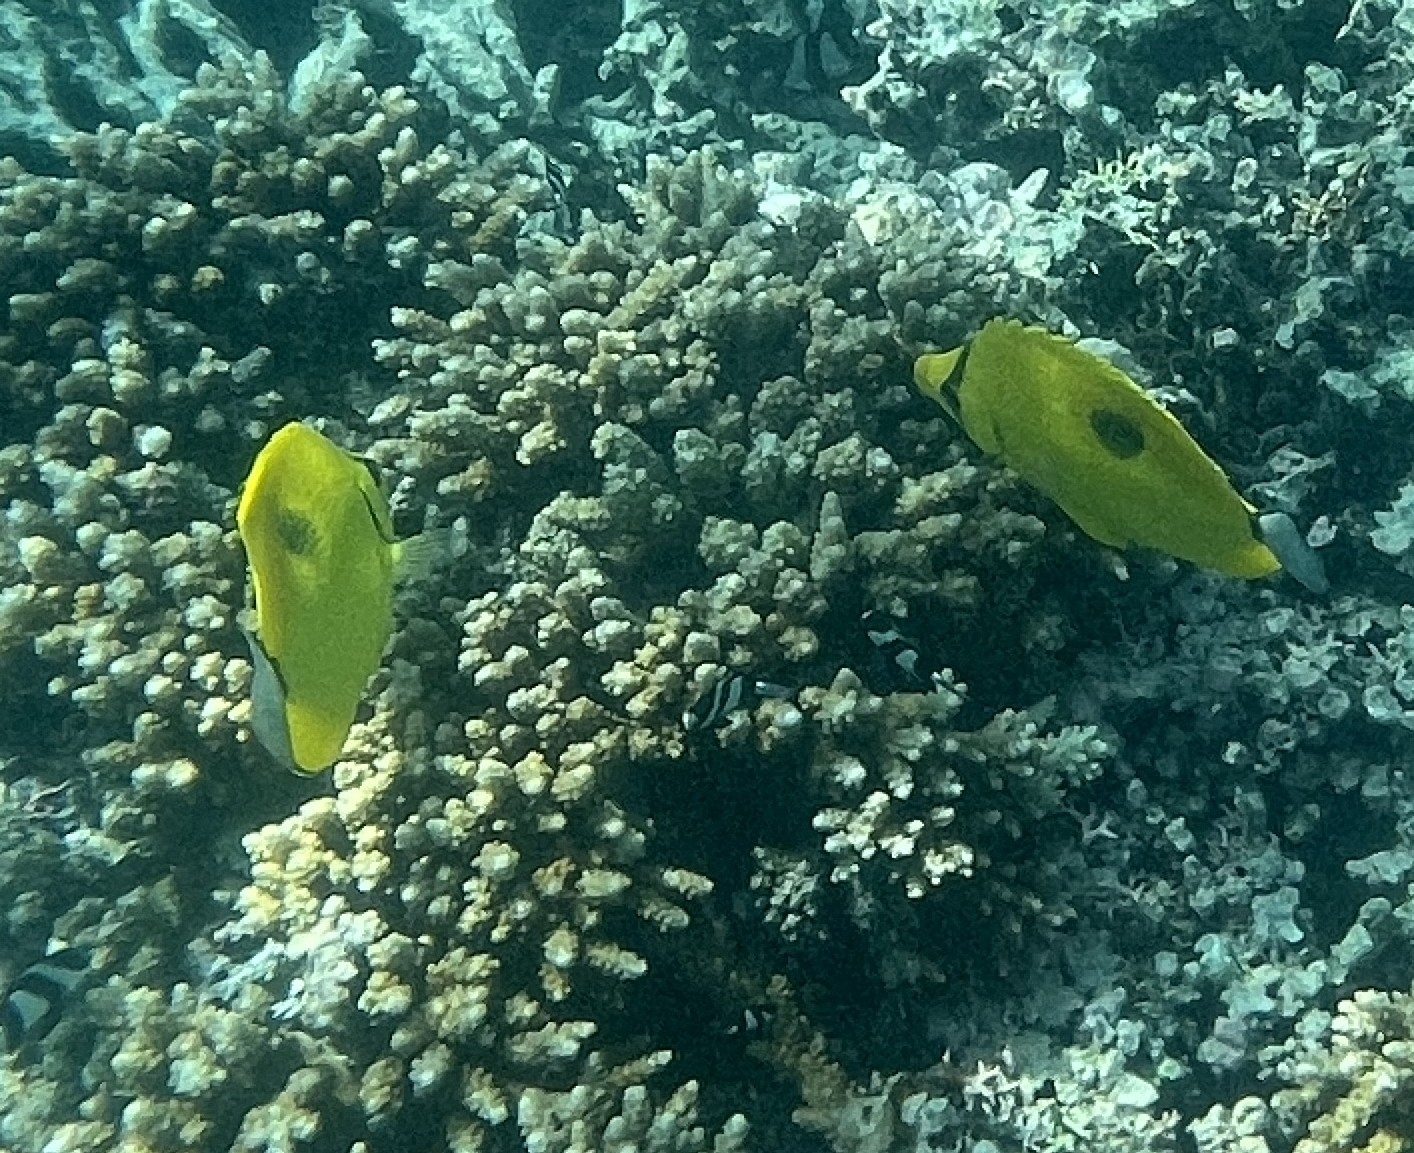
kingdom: Animalia
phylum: Chordata
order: Perciformes
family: Chaetodontidae
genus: Chaetodon
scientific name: Chaetodon interruptus
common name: Yellow teardrop butterflyfish
